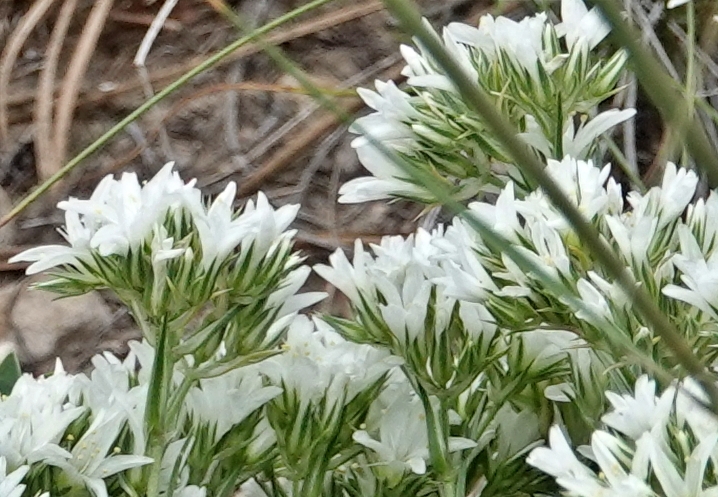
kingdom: Plantae
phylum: Tracheophyta
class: Magnoliopsida
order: Caryophyllales
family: Caryophyllaceae
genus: Eremogone
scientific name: Eremogone hookeri
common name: Hooker's sandwort
